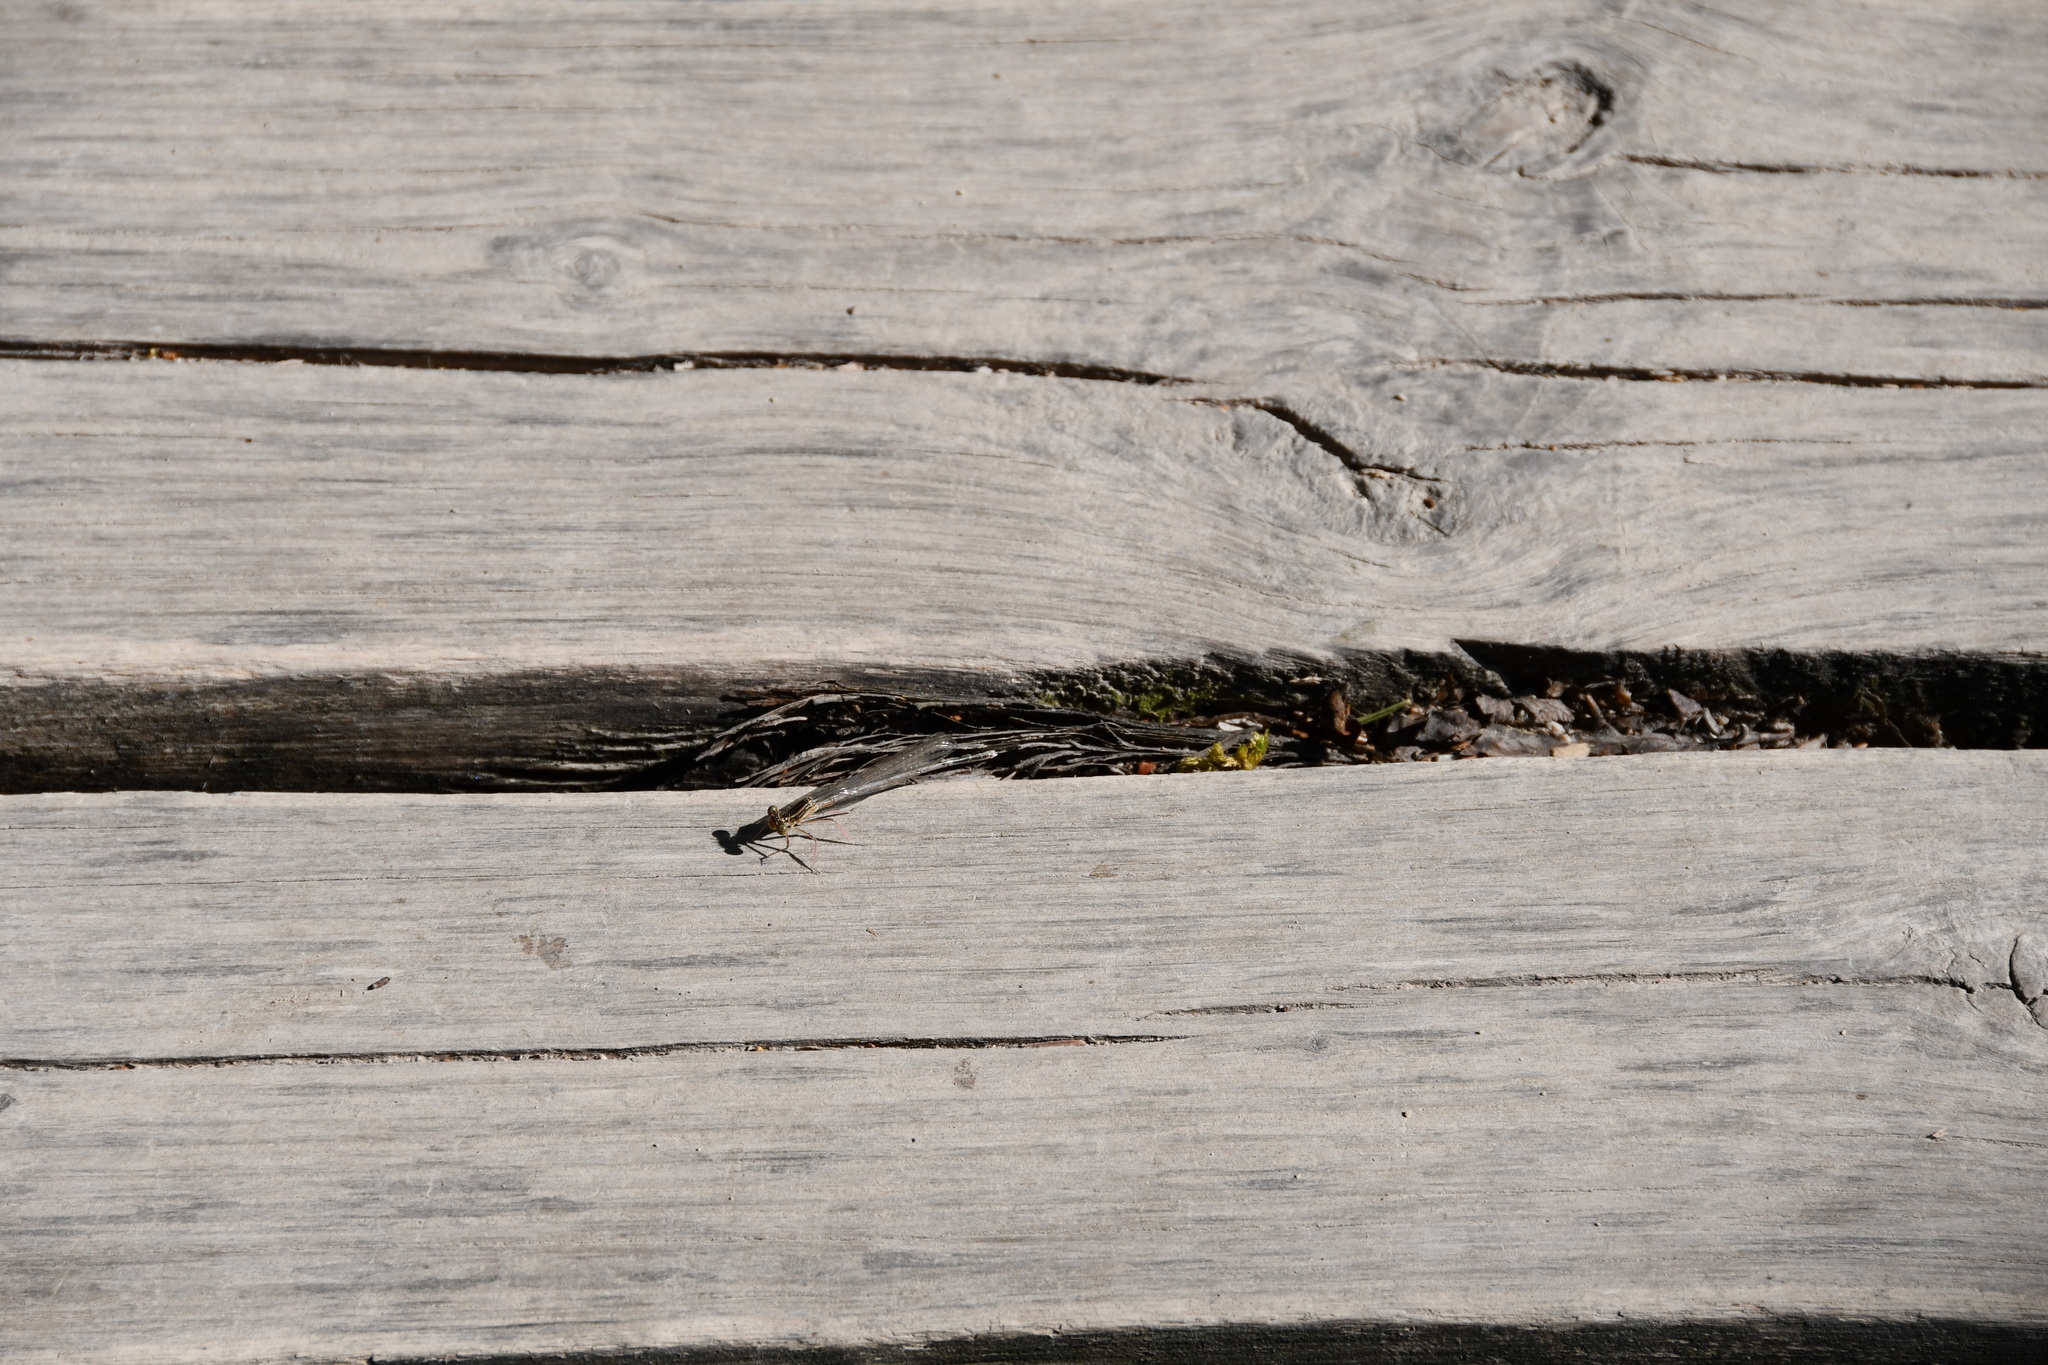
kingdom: Animalia
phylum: Arthropoda
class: Insecta
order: Odonata
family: Platycnemididae
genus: Platycnemis
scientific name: Platycnemis pennipes
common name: White-legged damselfly
